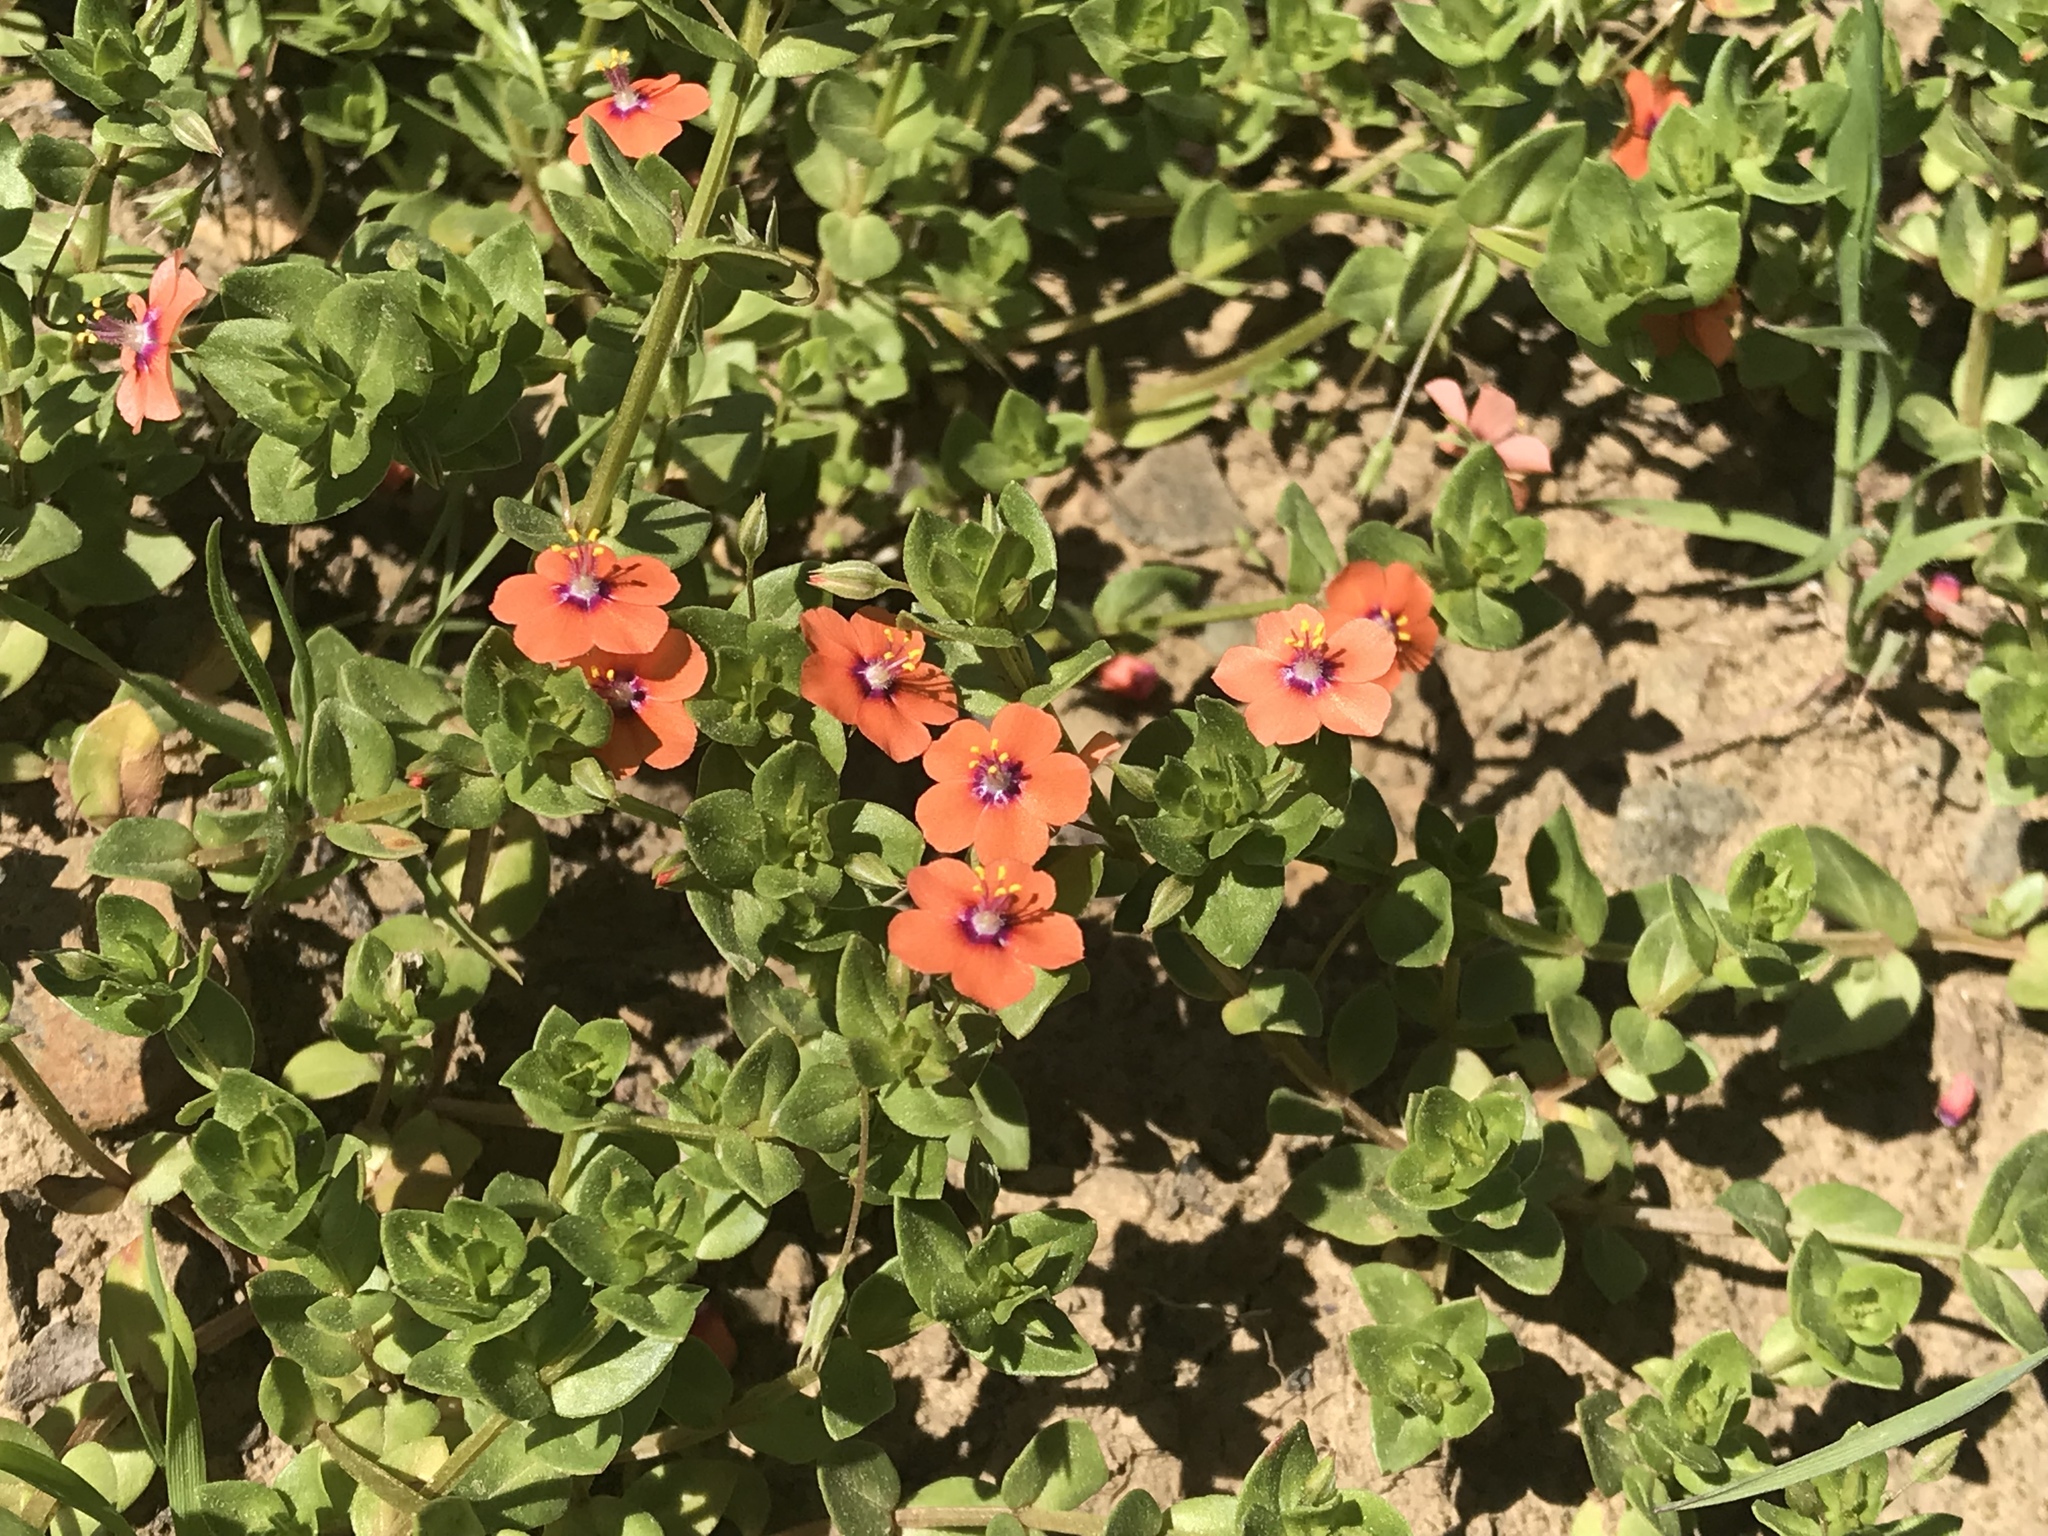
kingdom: Plantae
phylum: Tracheophyta
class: Magnoliopsida
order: Ericales
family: Primulaceae
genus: Lysimachia
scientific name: Lysimachia arvensis
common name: Scarlet pimpernel
